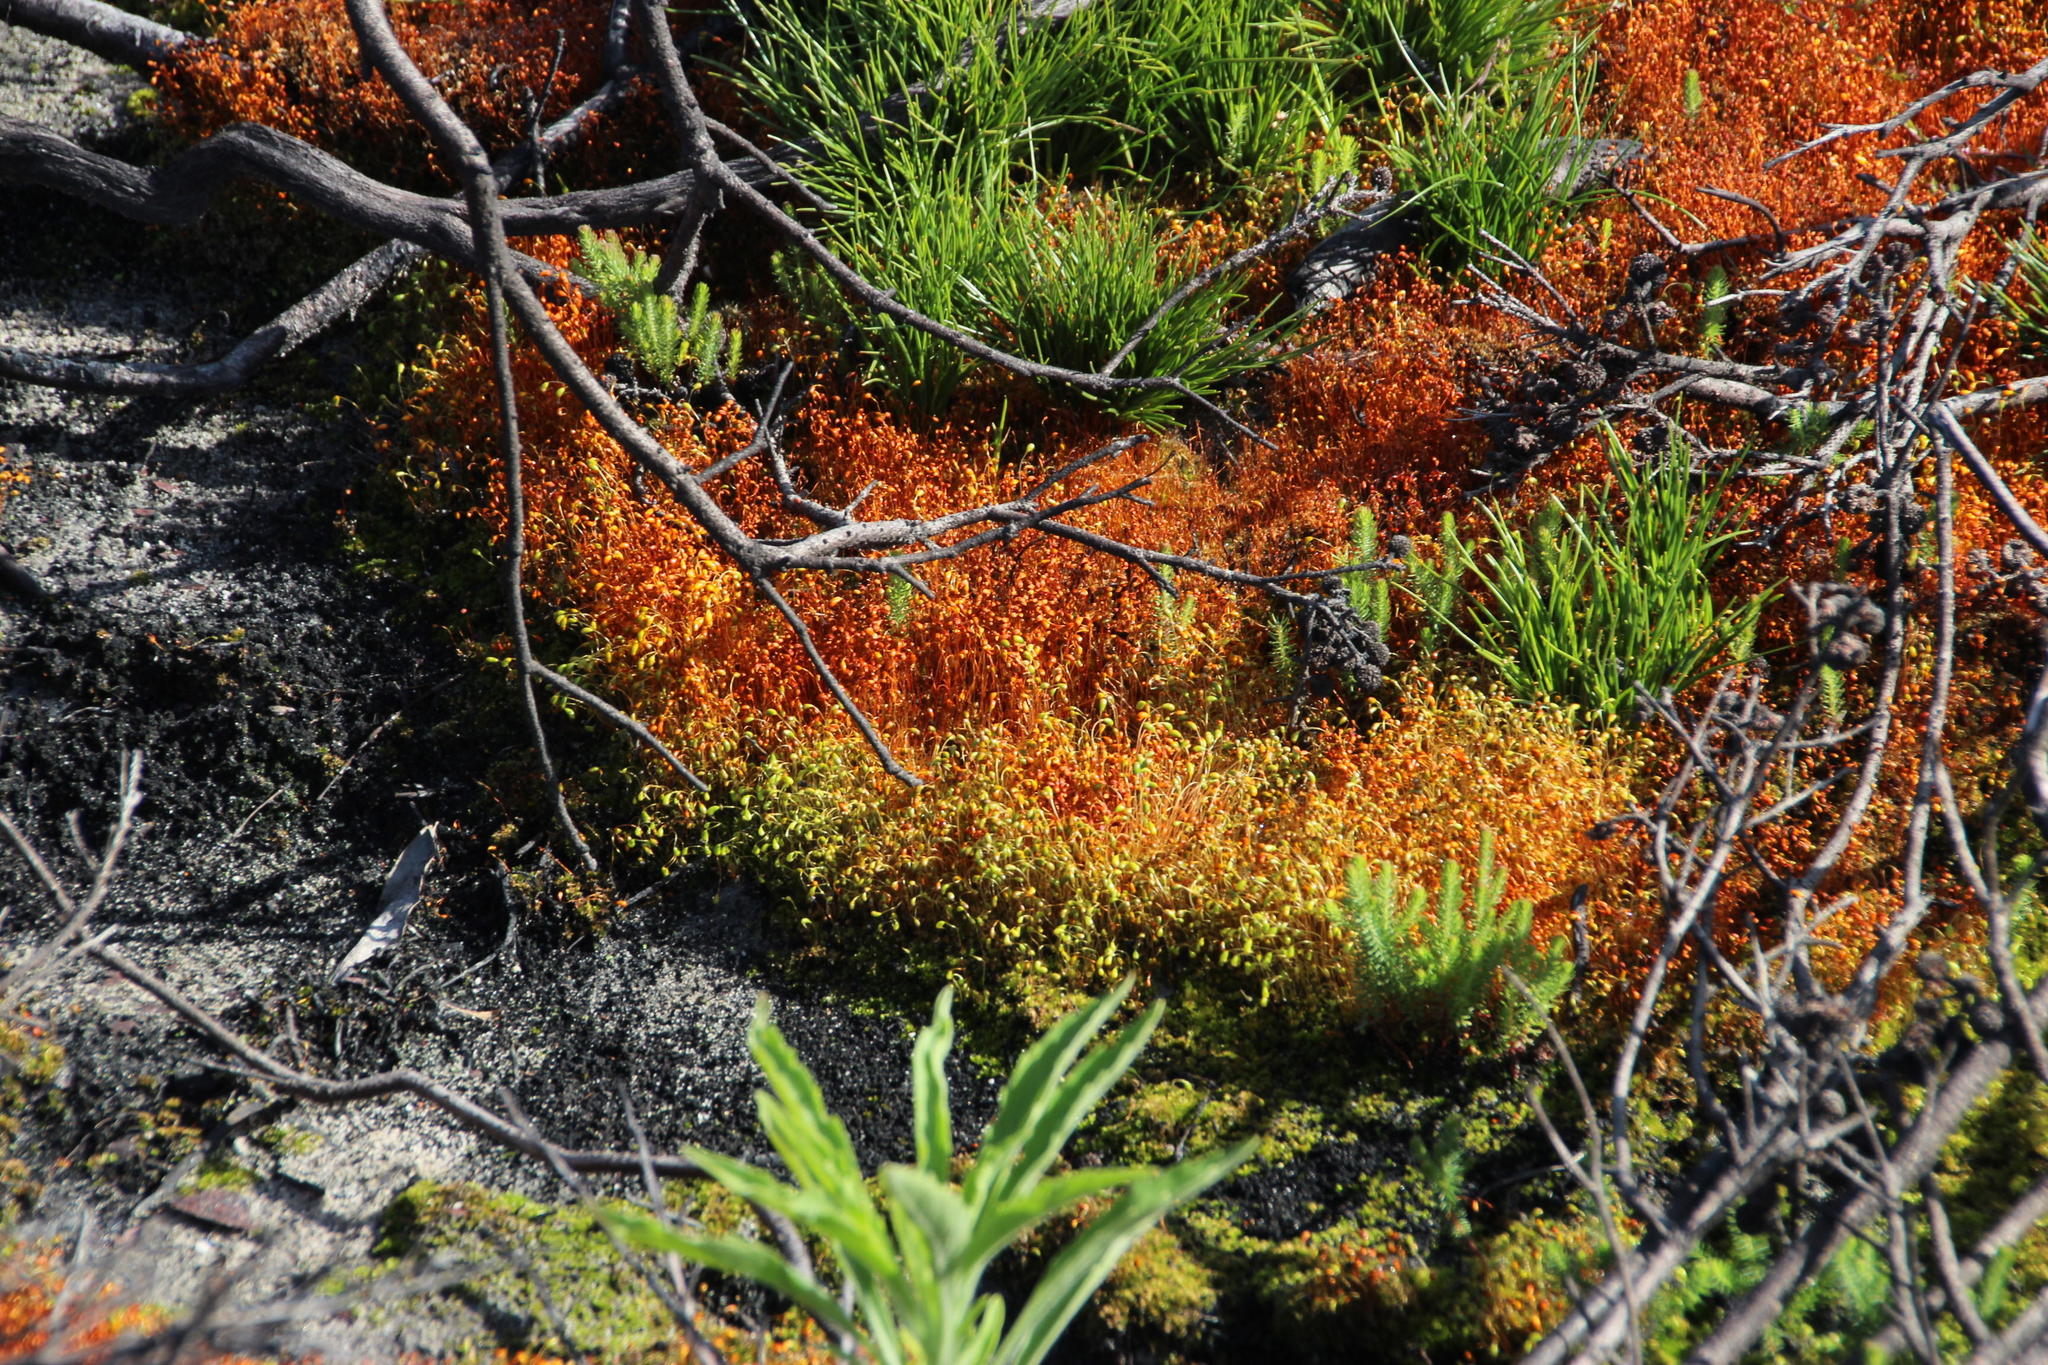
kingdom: Plantae
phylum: Bryophyta
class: Bryopsida
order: Funariales
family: Funariaceae
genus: Funaria
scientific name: Funaria hygrometrica
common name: Common cord moss
